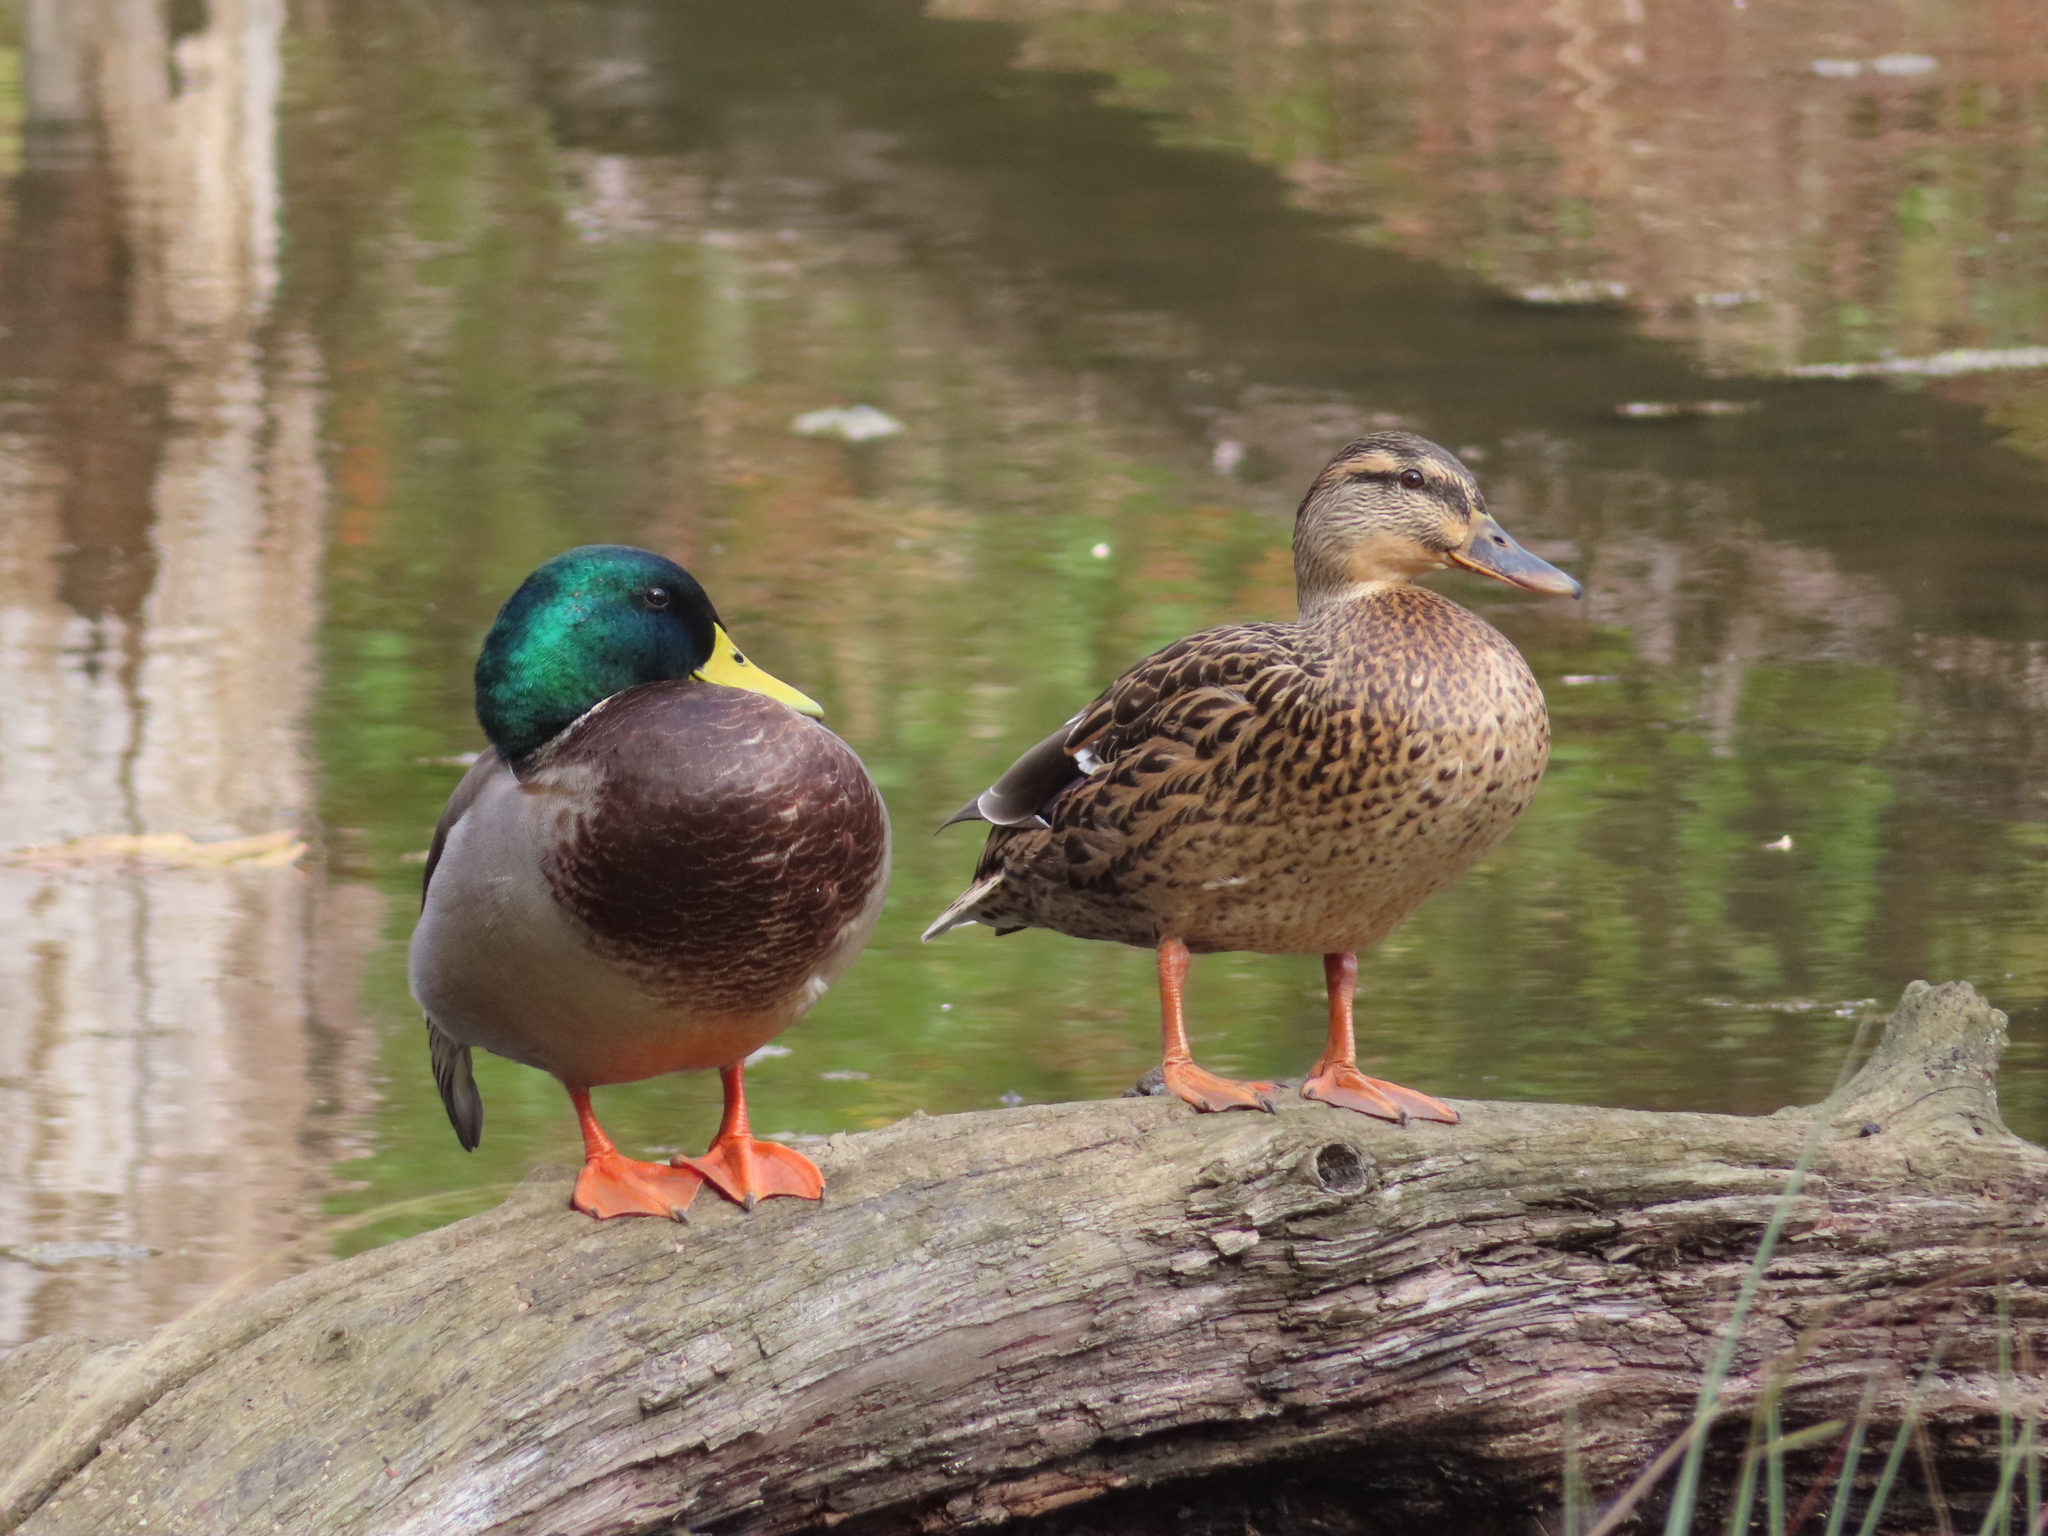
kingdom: Animalia
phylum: Chordata
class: Aves
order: Anseriformes
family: Anatidae
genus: Anas
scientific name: Anas platyrhynchos
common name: Mallard
